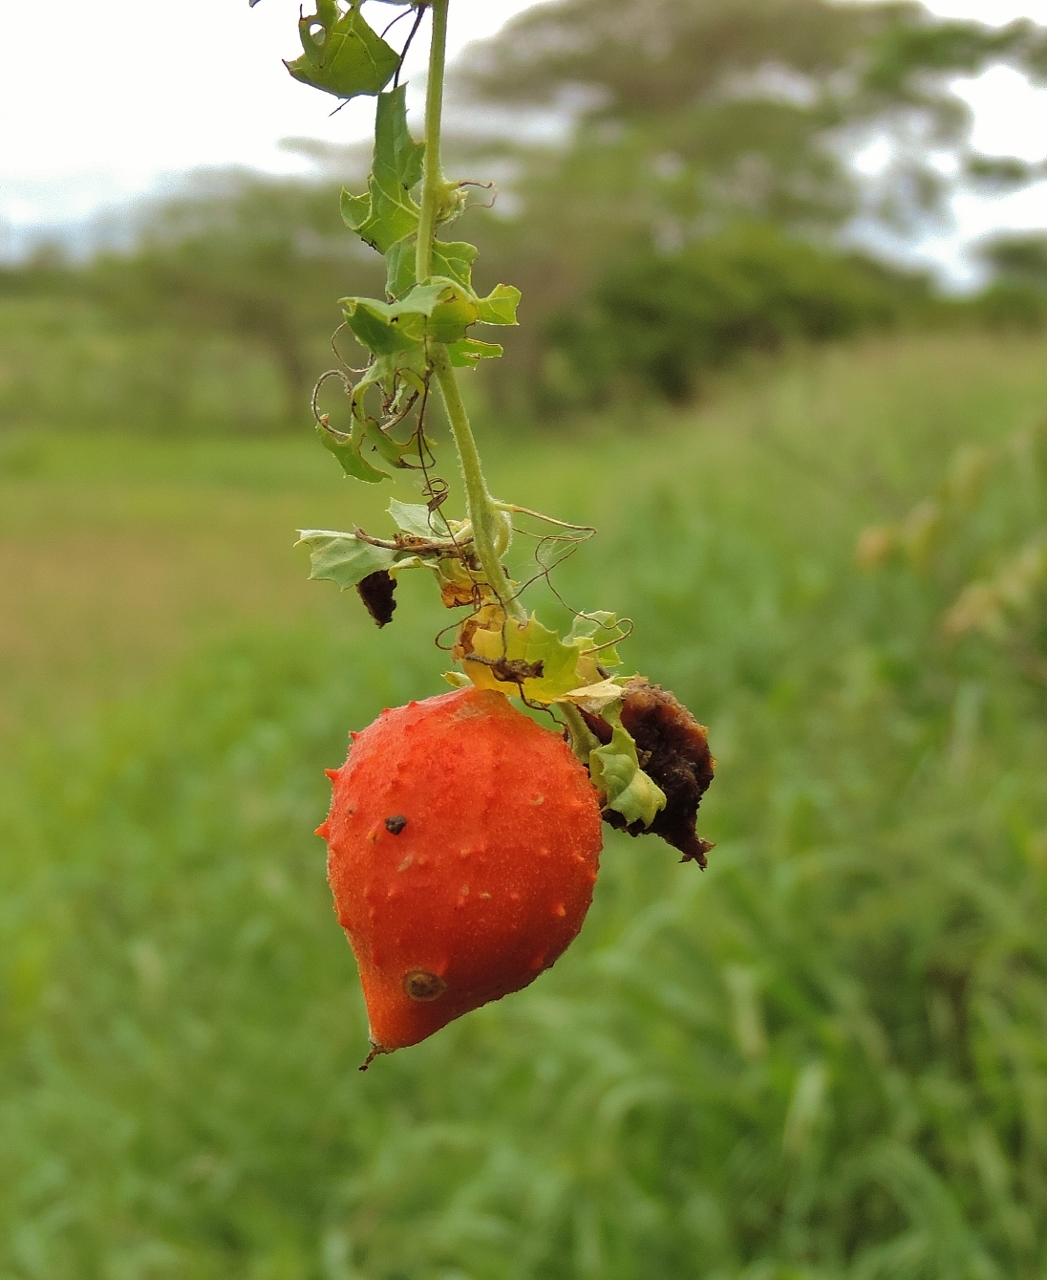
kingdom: Plantae
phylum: Tracheophyta
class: Magnoliopsida
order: Cucurbitales
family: Cucurbitaceae
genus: Momordica
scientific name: Momordica balsamina
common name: Southern balsampear
